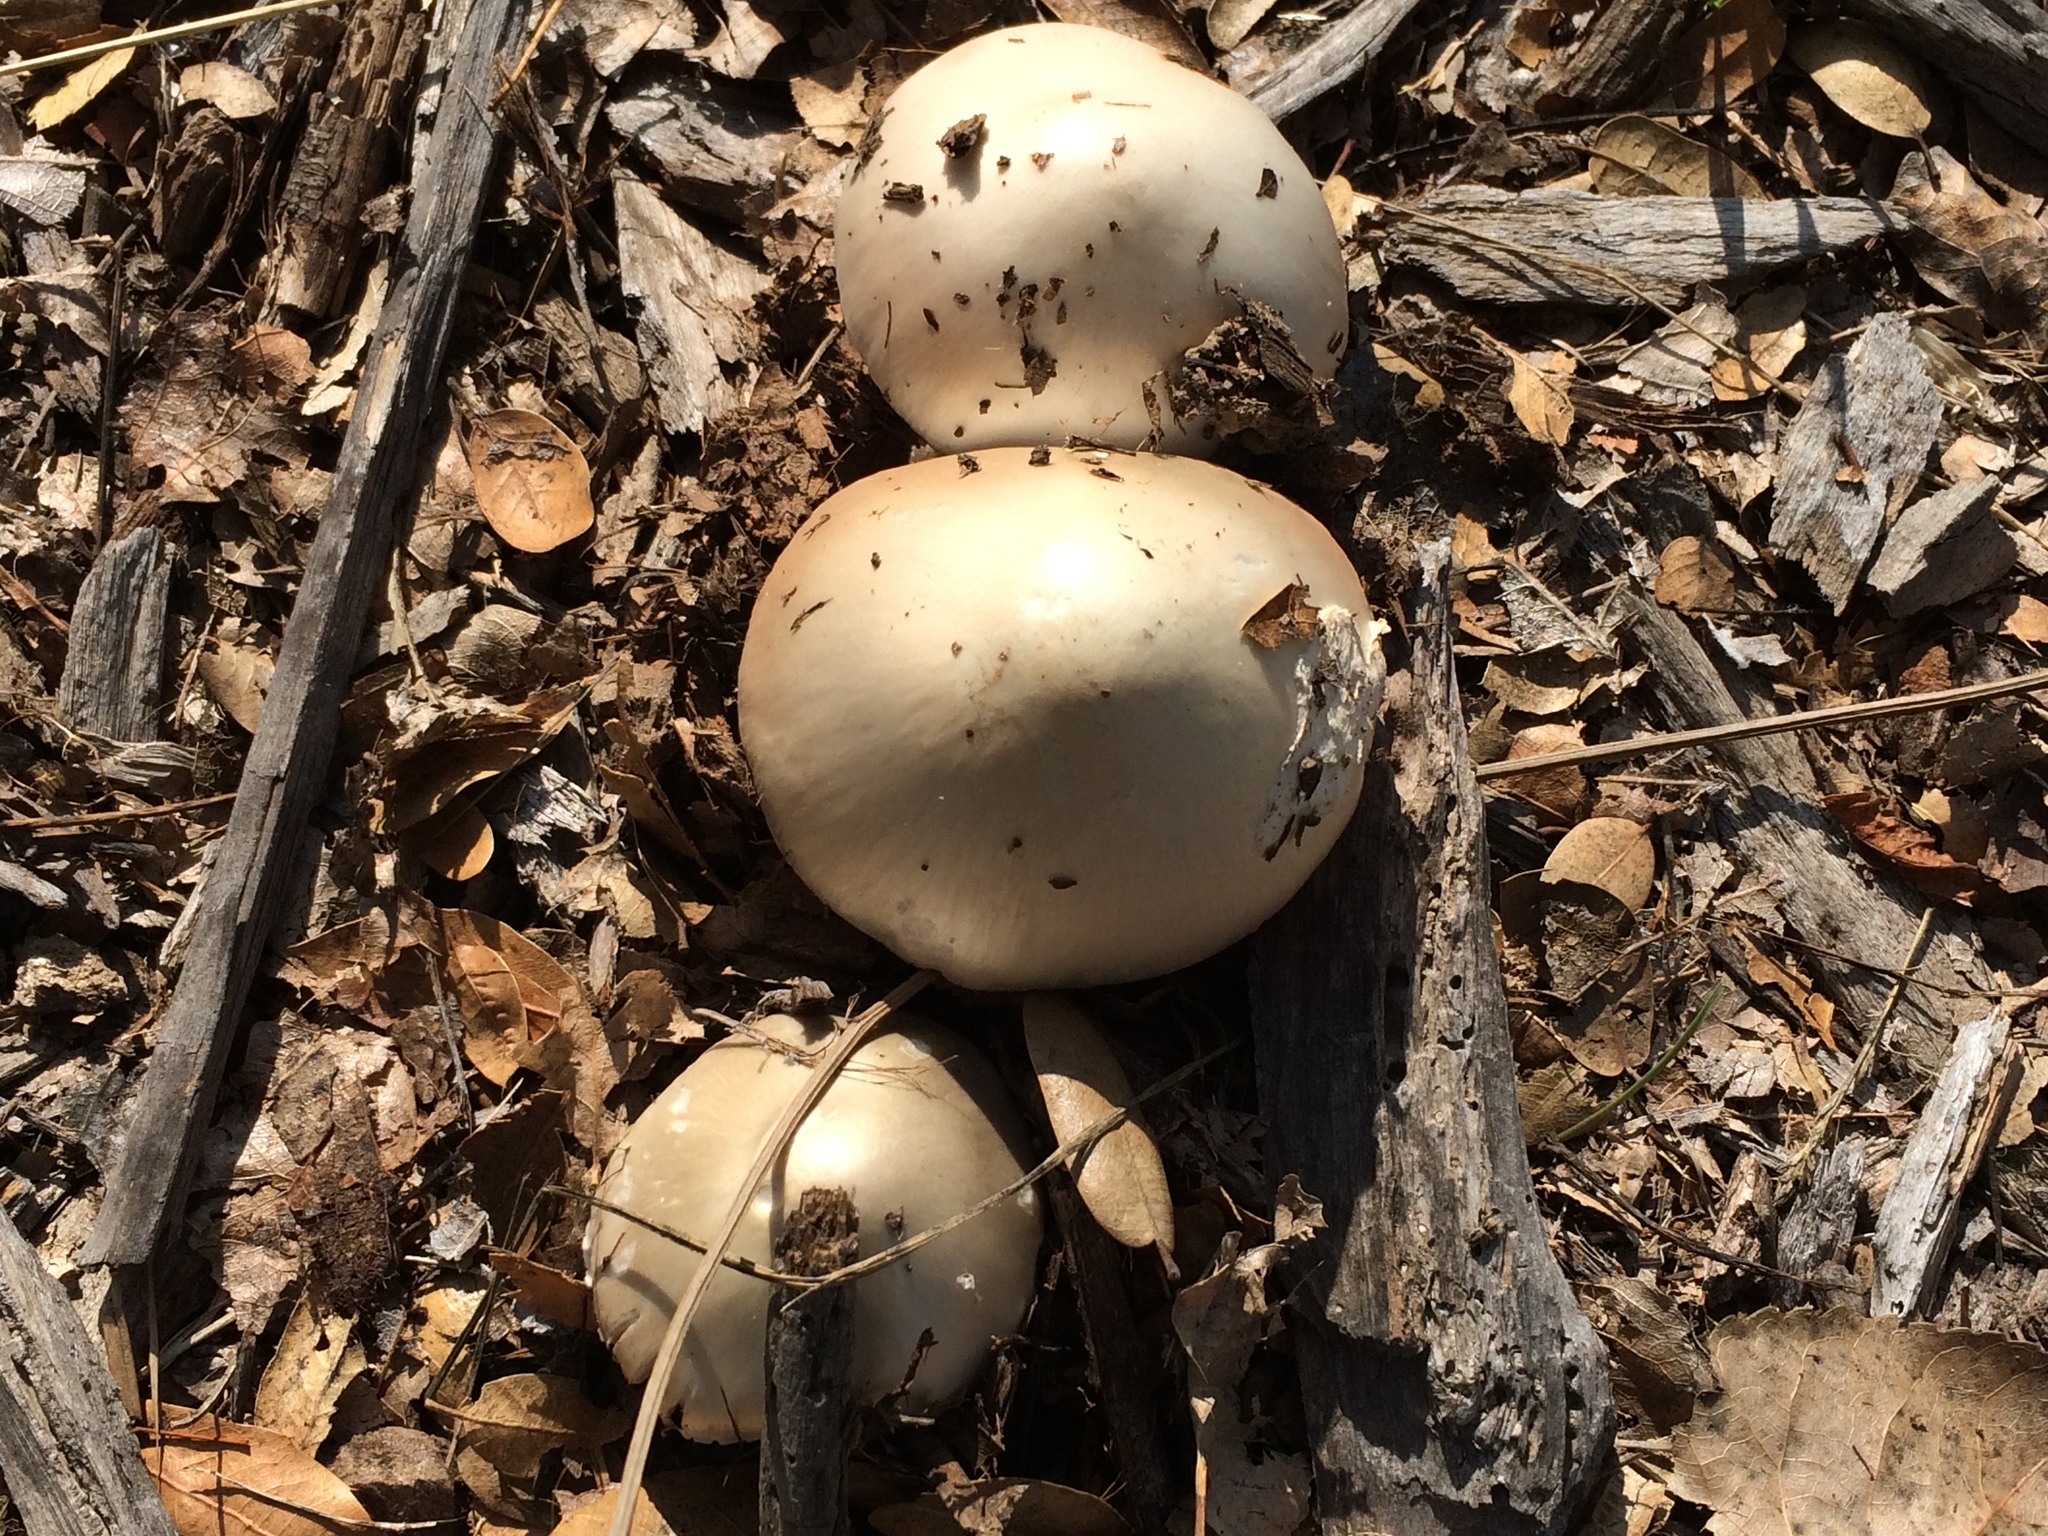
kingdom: Fungi
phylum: Basidiomycota
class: Agaricomycetes
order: Agaricales
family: Pluteaceae
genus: Volvopluteus
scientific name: Volvopluteus gloiocephalus
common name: Stubble rosegill
